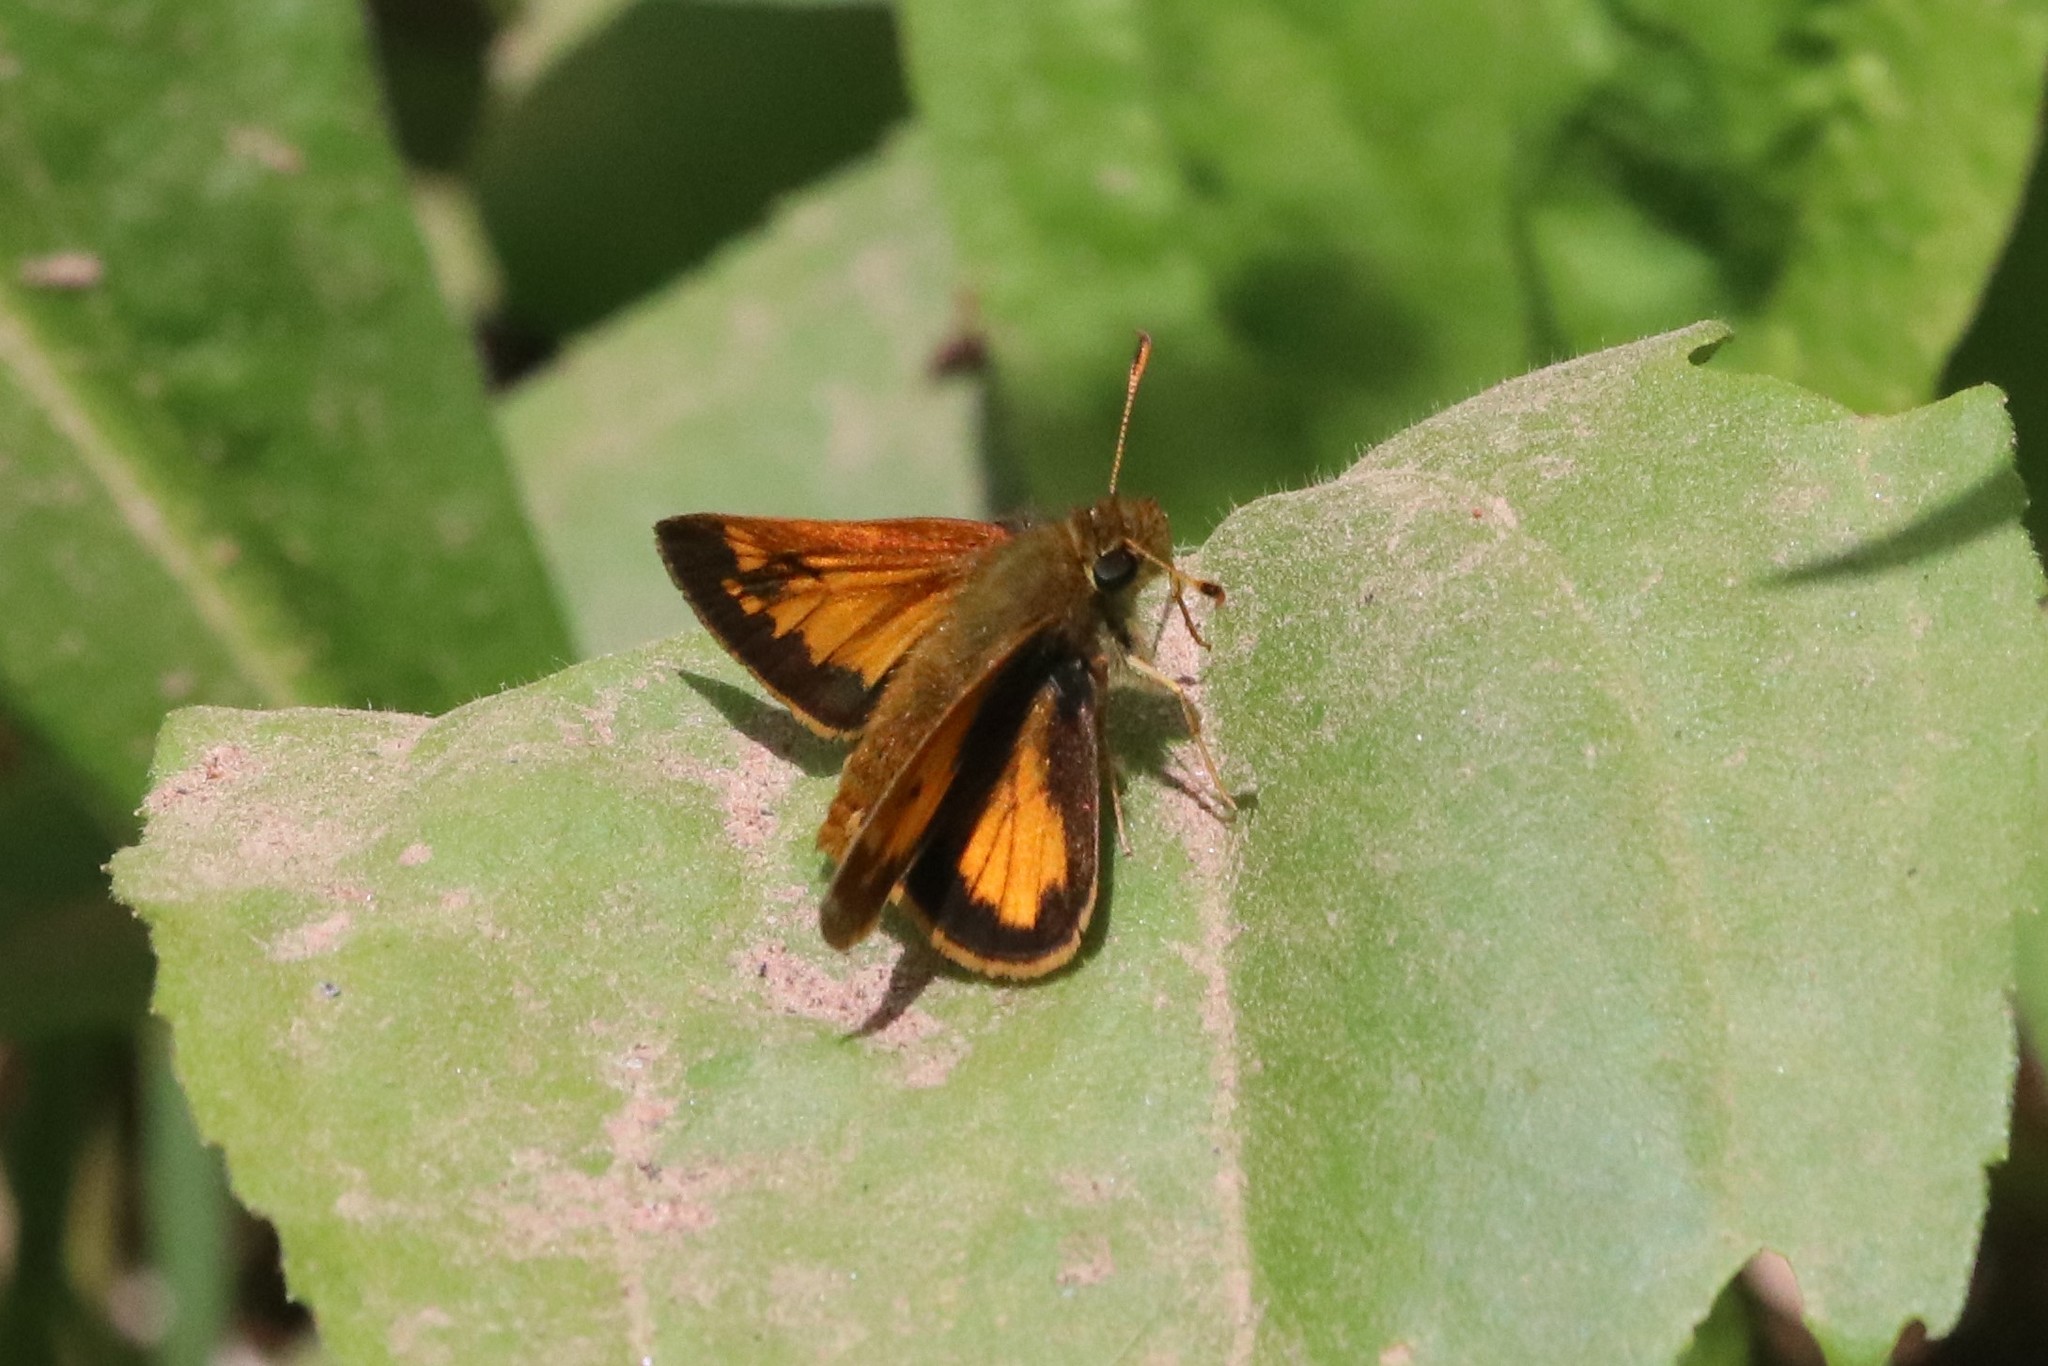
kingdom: Animalia
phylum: Arthropoda
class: Insecta
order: Lepidoptera
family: Hesperiidae
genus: Lon
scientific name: Lon hobomok
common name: Hobomok skipper
